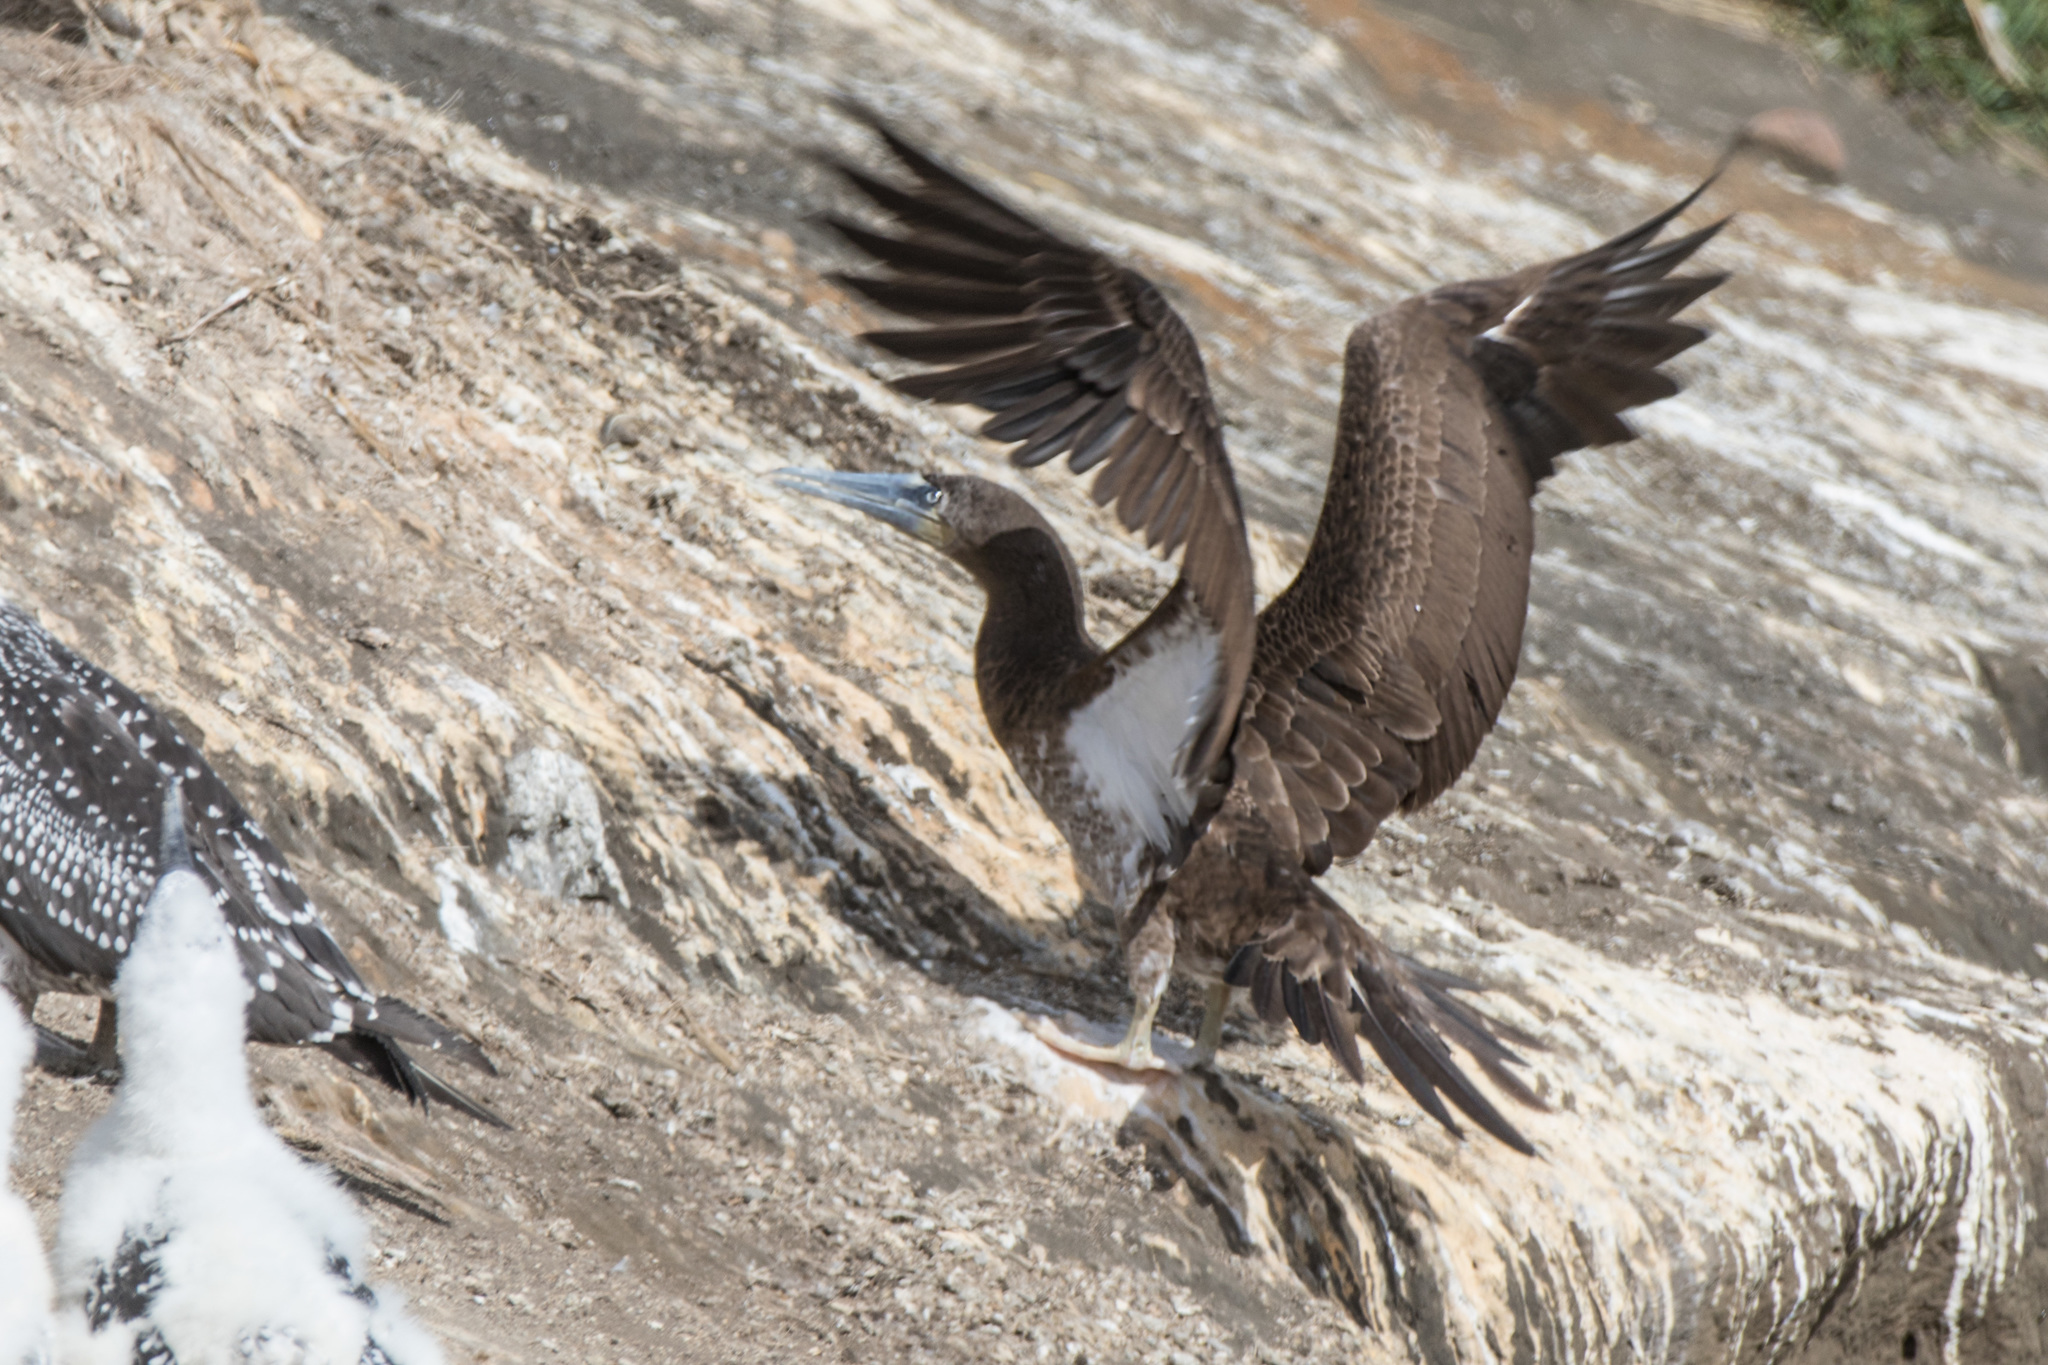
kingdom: Animalia
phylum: Chordata
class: Aves
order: Suliformes
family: Sulidae
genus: Sula
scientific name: Sula leucogaster
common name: Brown booby
